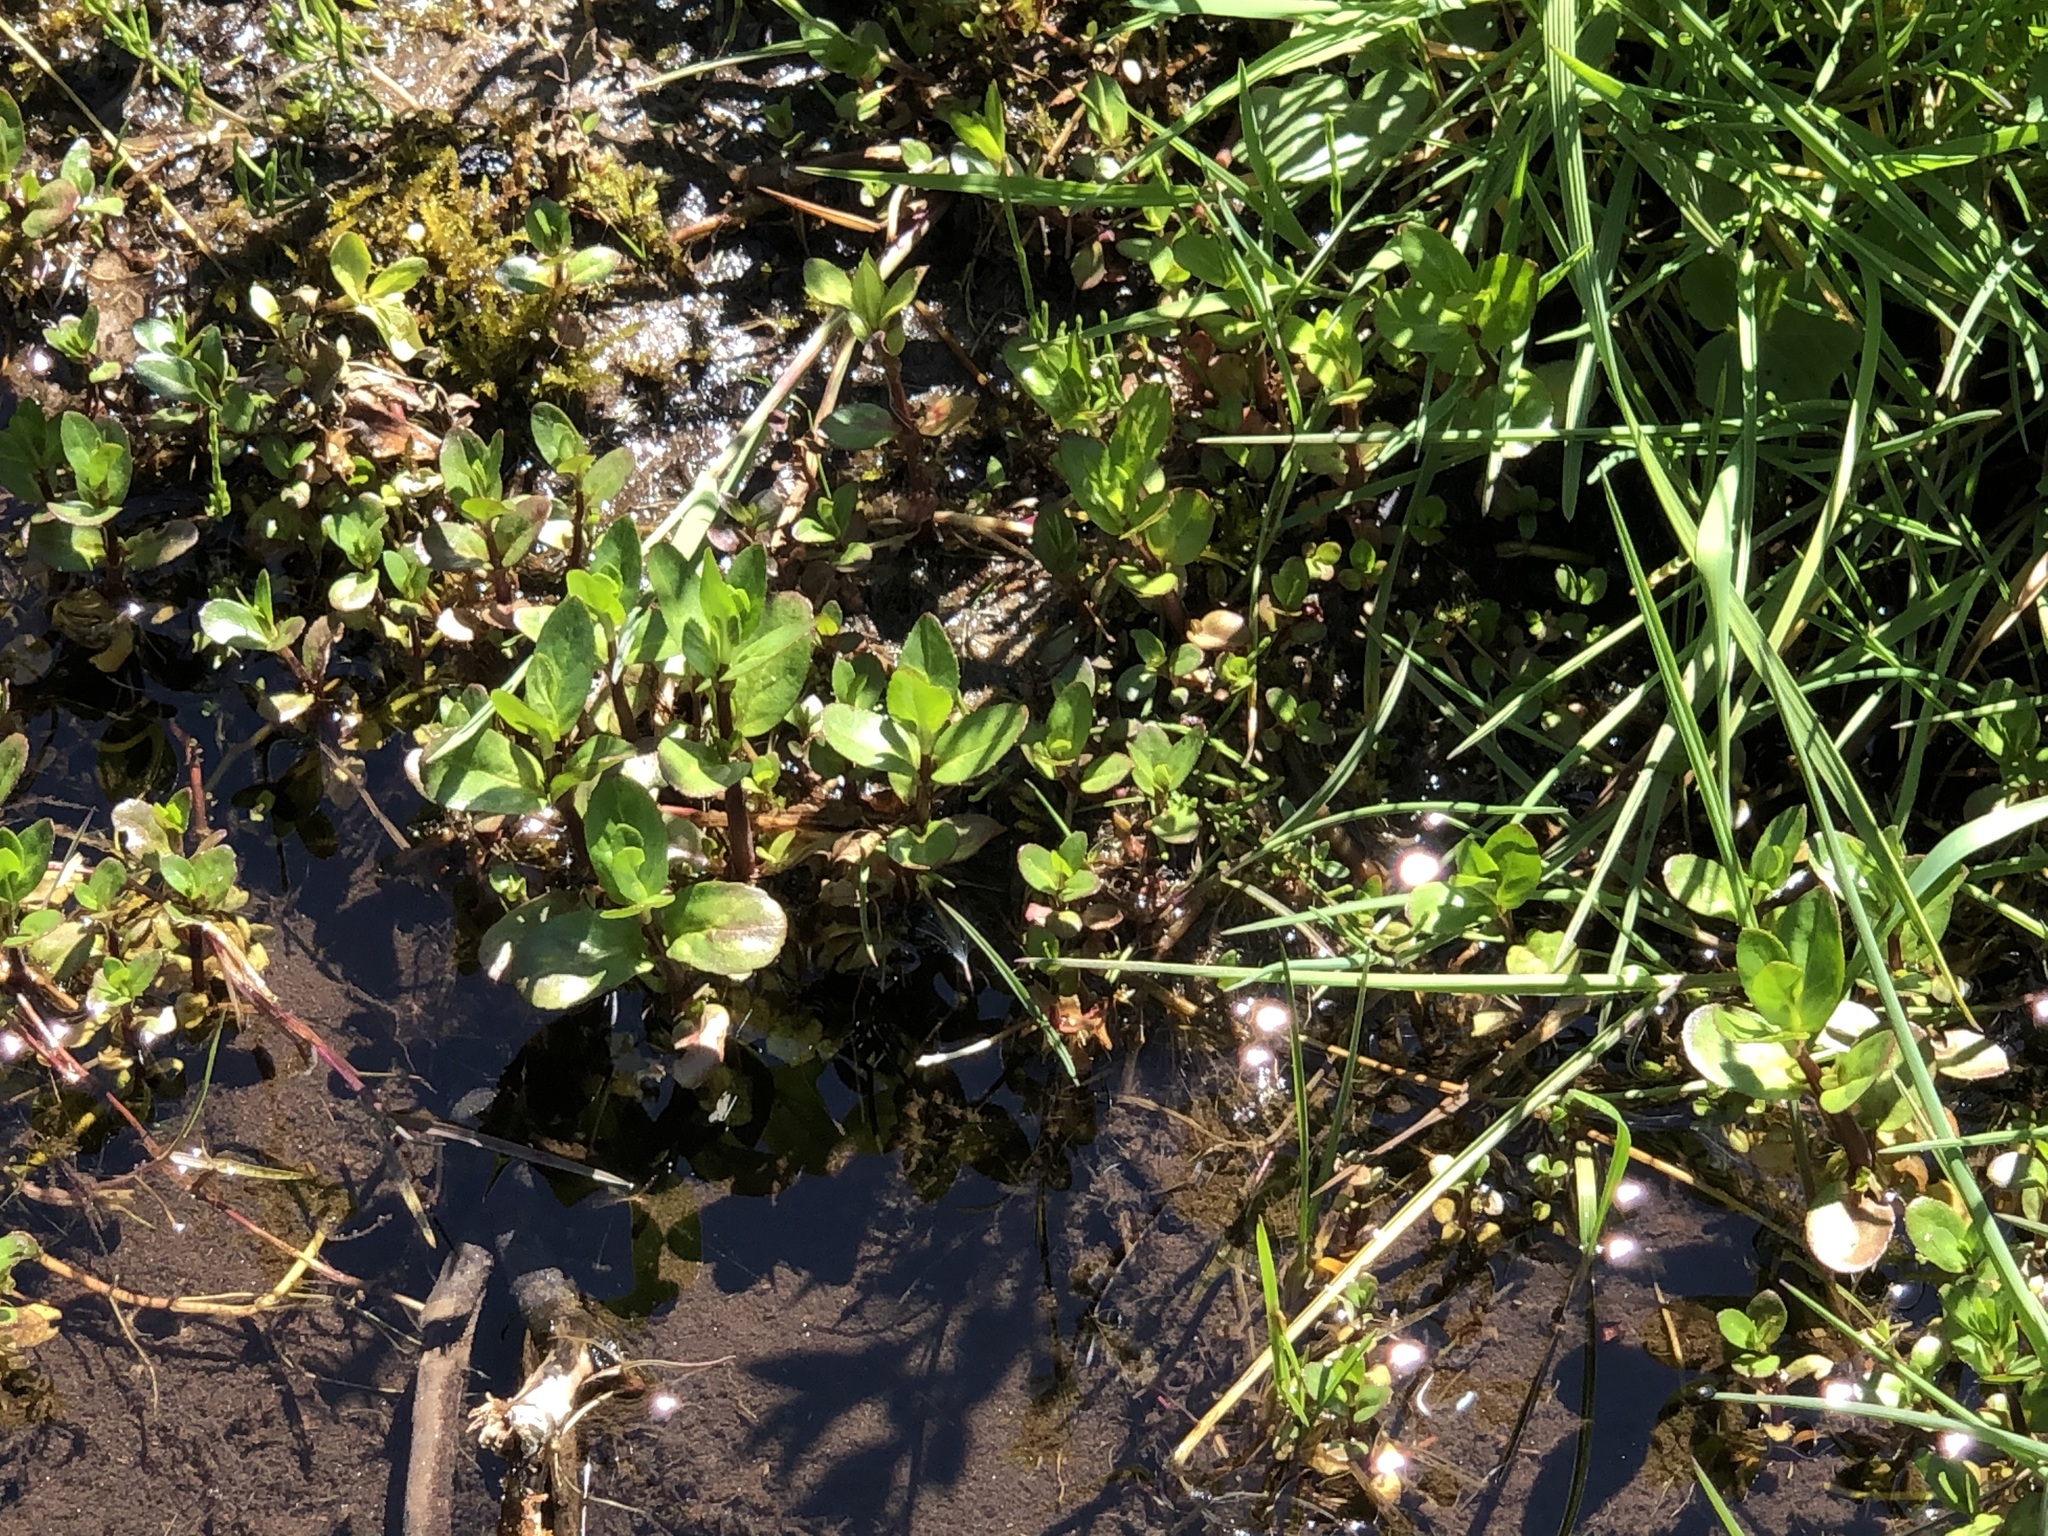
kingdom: Plantae
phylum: Tracheophyta
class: Magnoliopsida
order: Lamiales
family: Plantaginaceae
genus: Veronica
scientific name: Veronica beccabunga
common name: Brooklime
